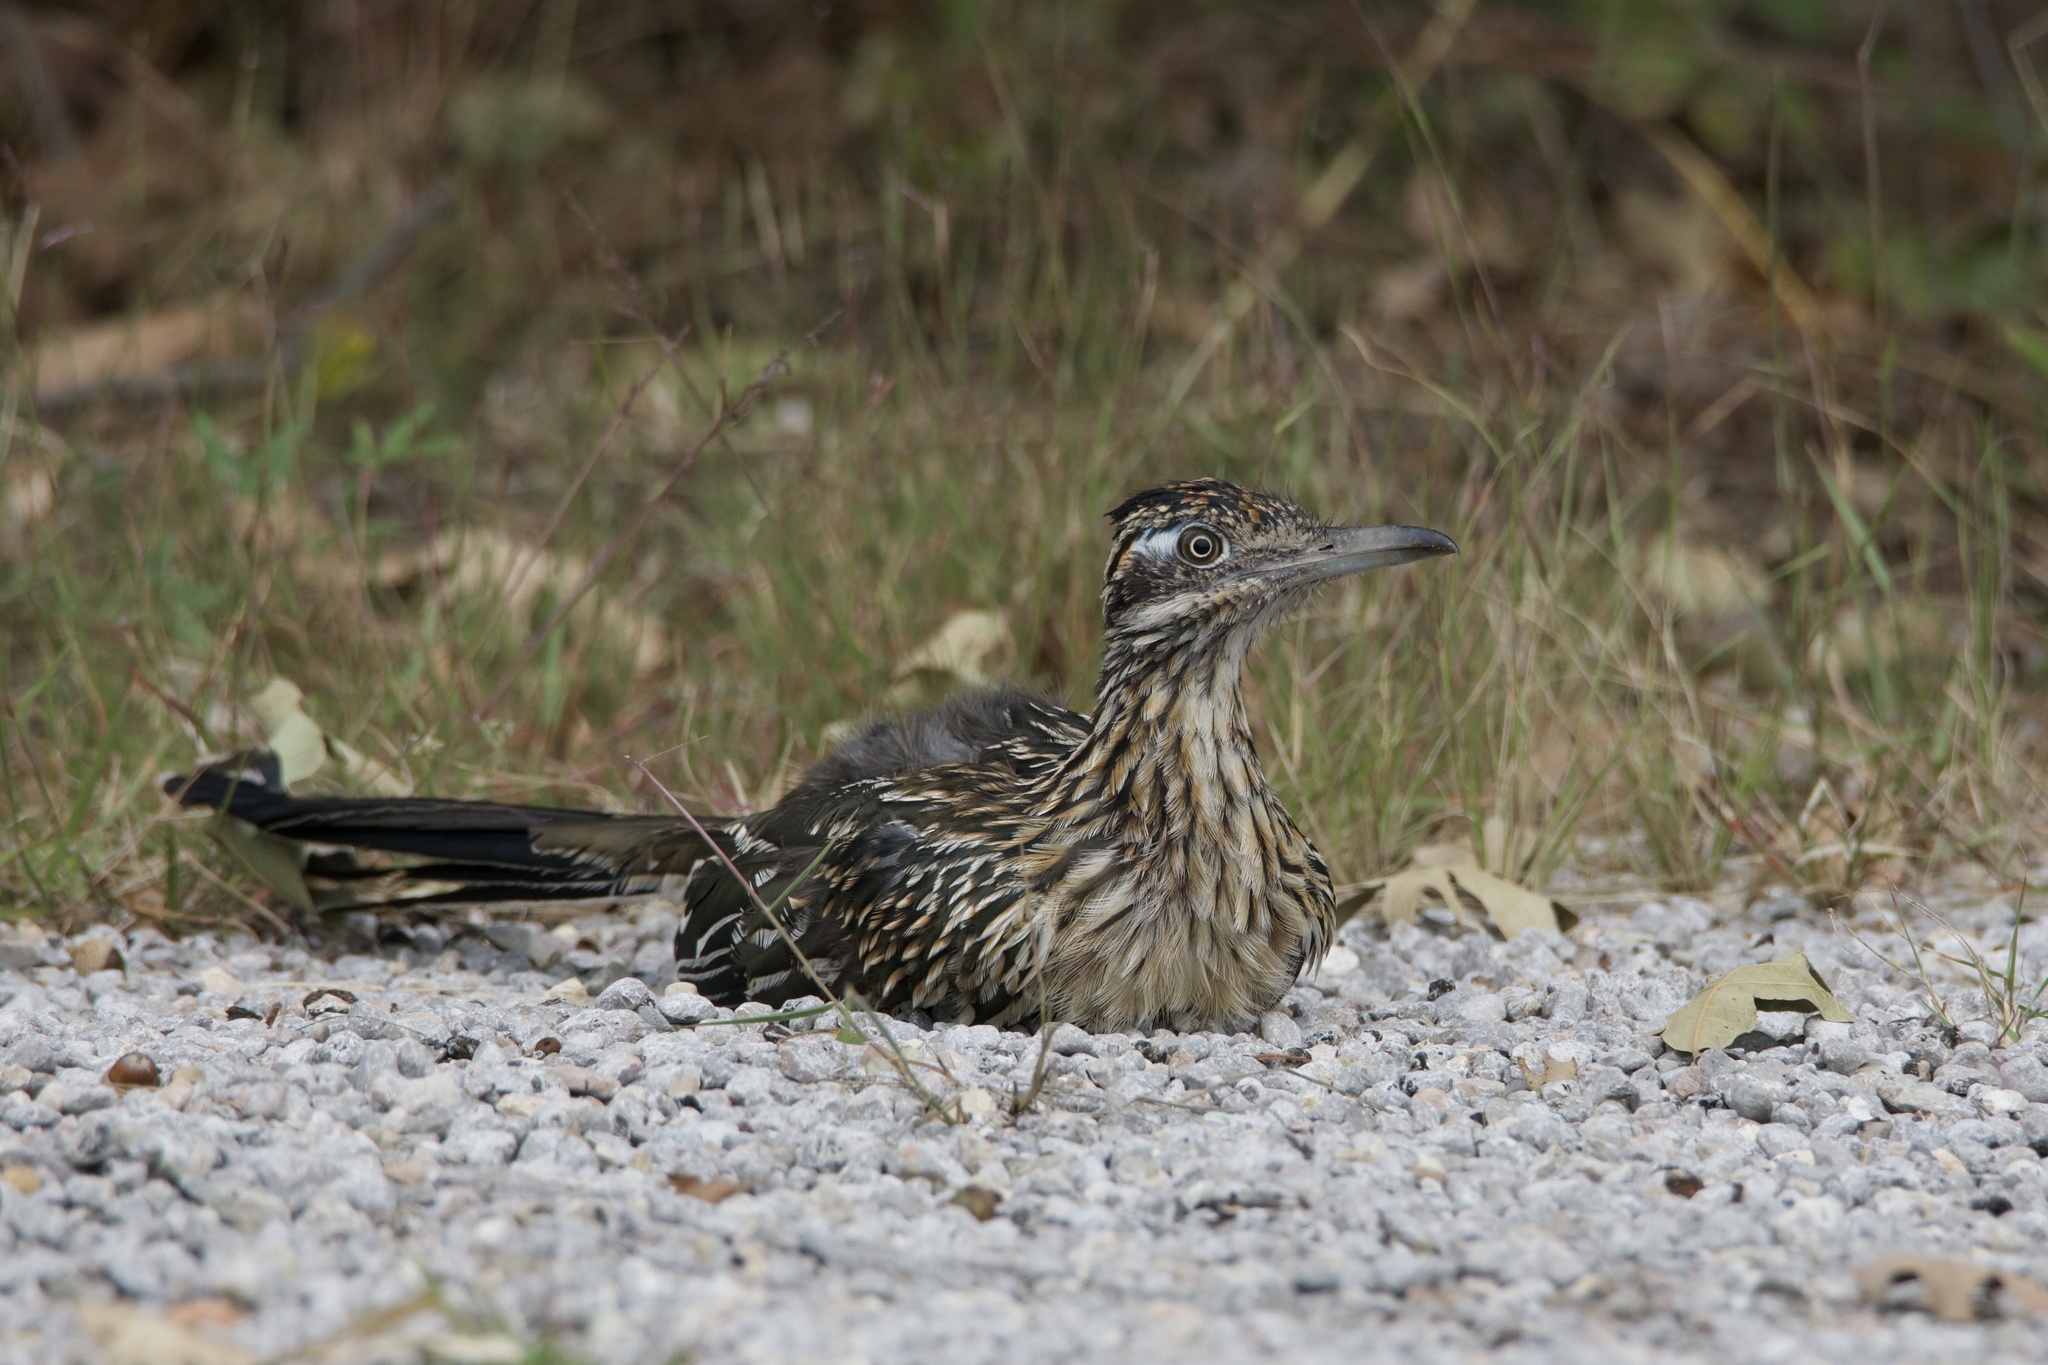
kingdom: Animalia
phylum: Chordata
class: Aves
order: Cuculiformes
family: Cuculidae
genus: Geococcyx
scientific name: Geococcyx californianus
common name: Greater roadrunner
